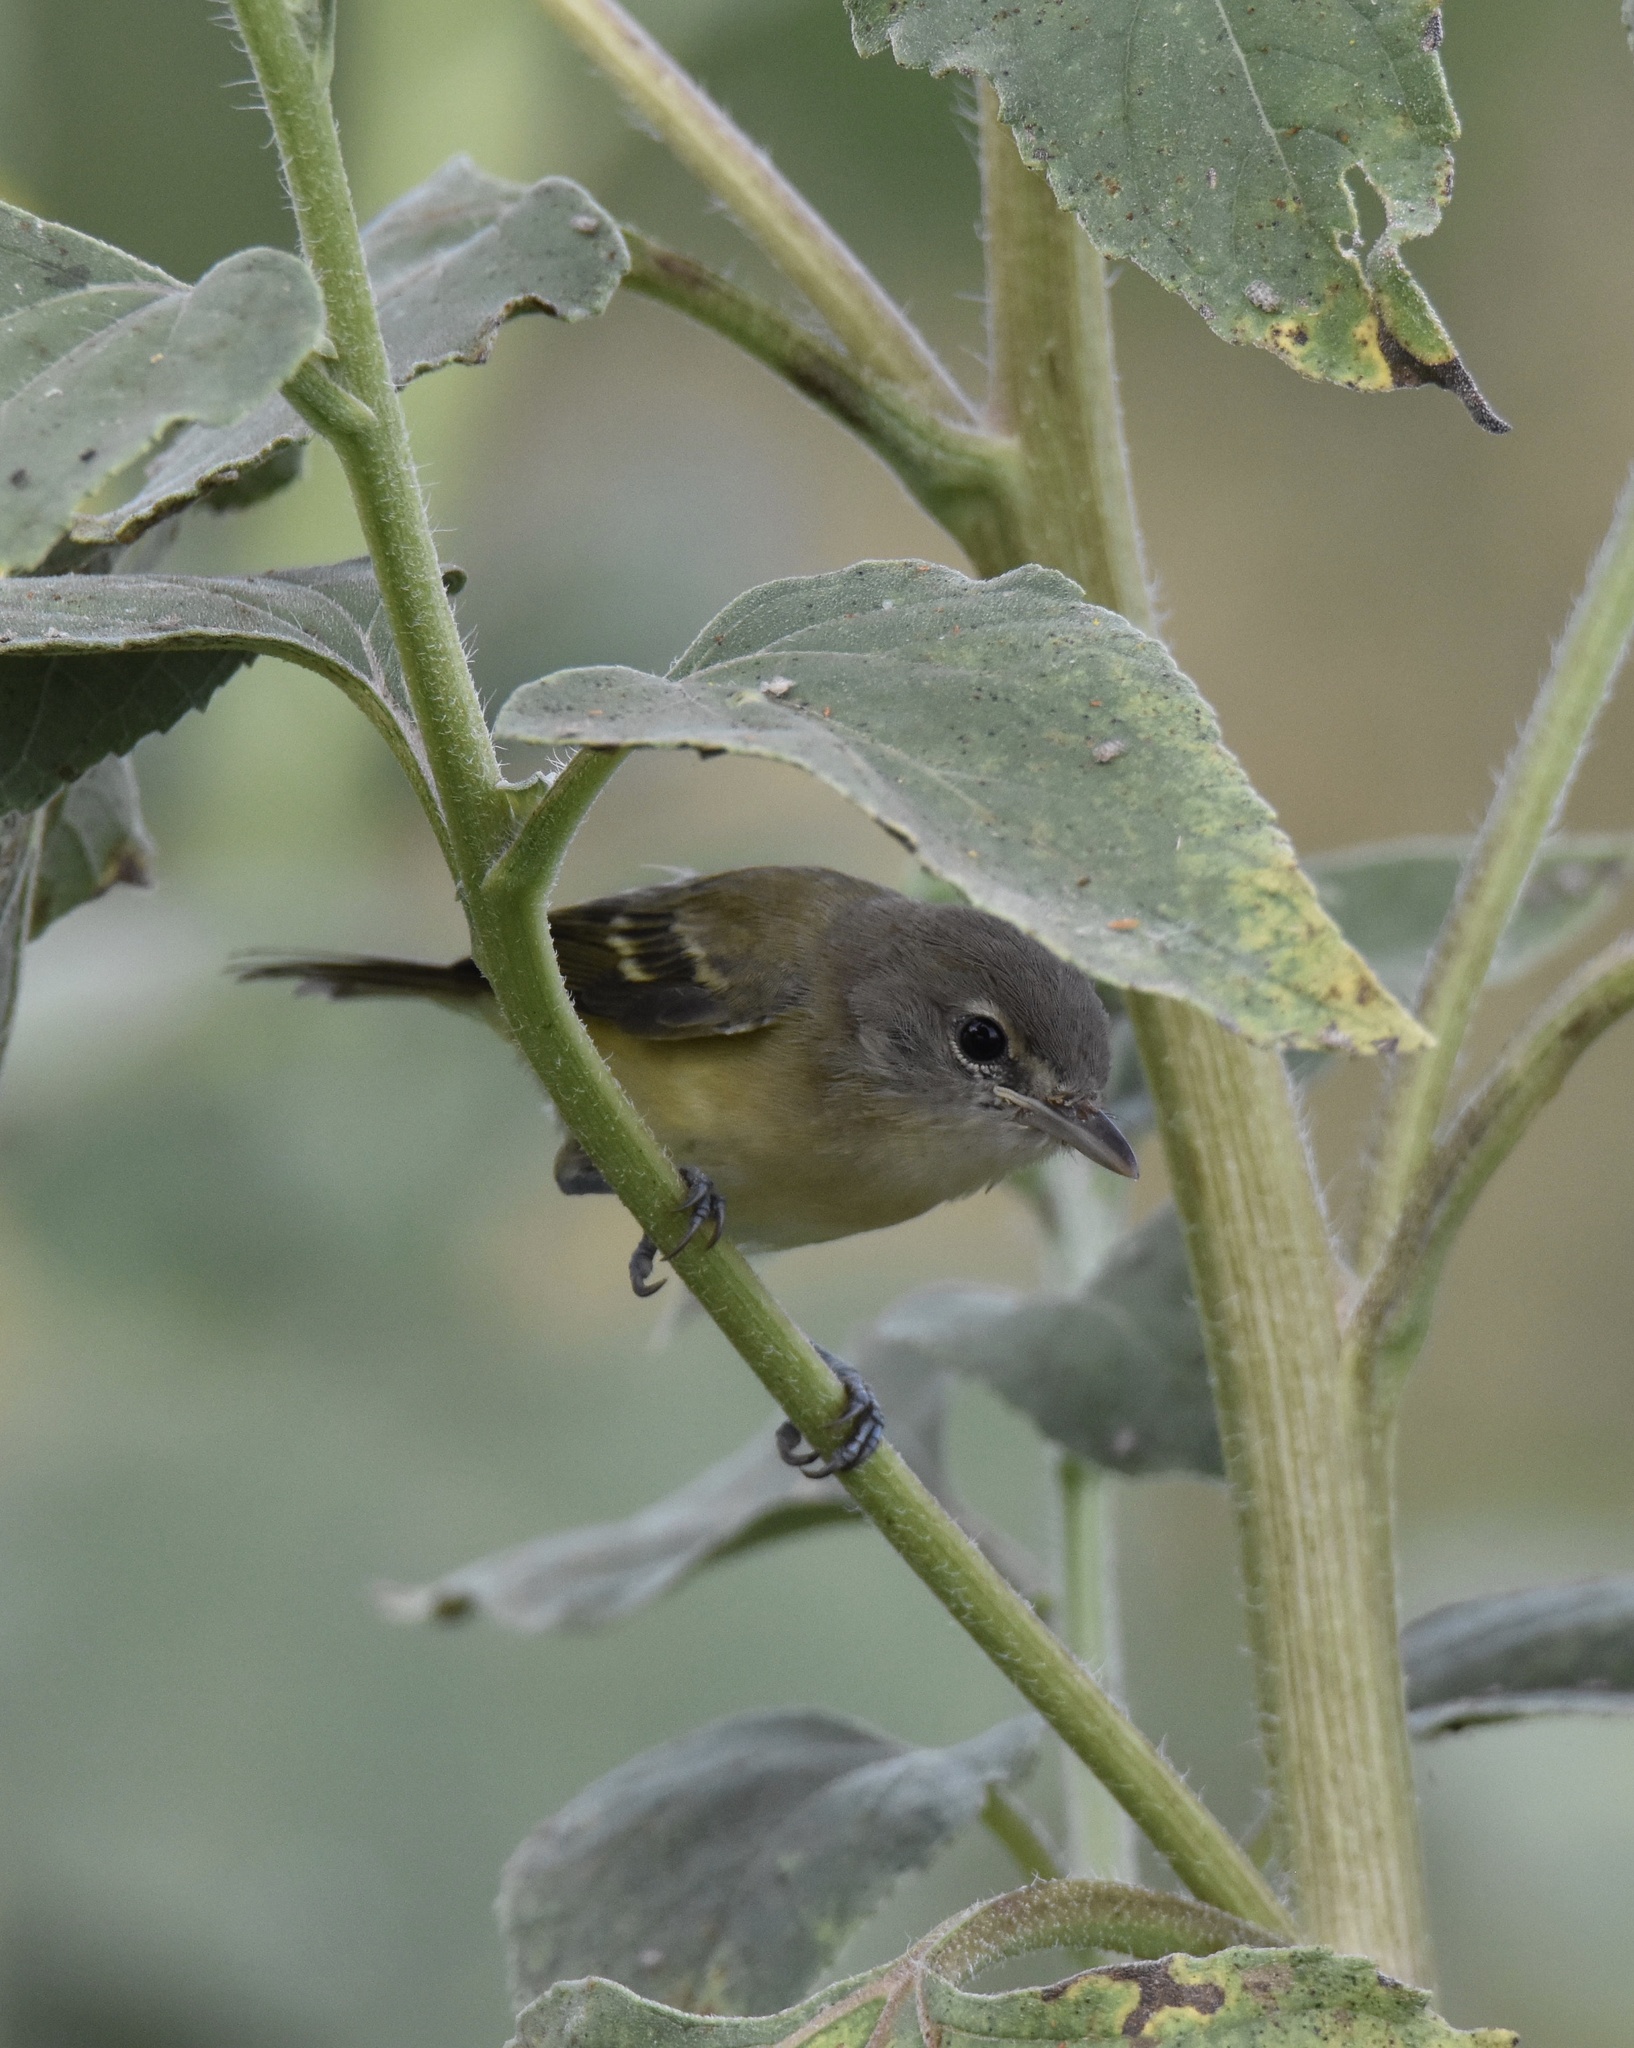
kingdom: Animalia
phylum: Chordata
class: Aves
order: Passeriformes
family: Vireonidae
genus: Vireo
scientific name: Vireo bellii
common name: Bell's vireo
